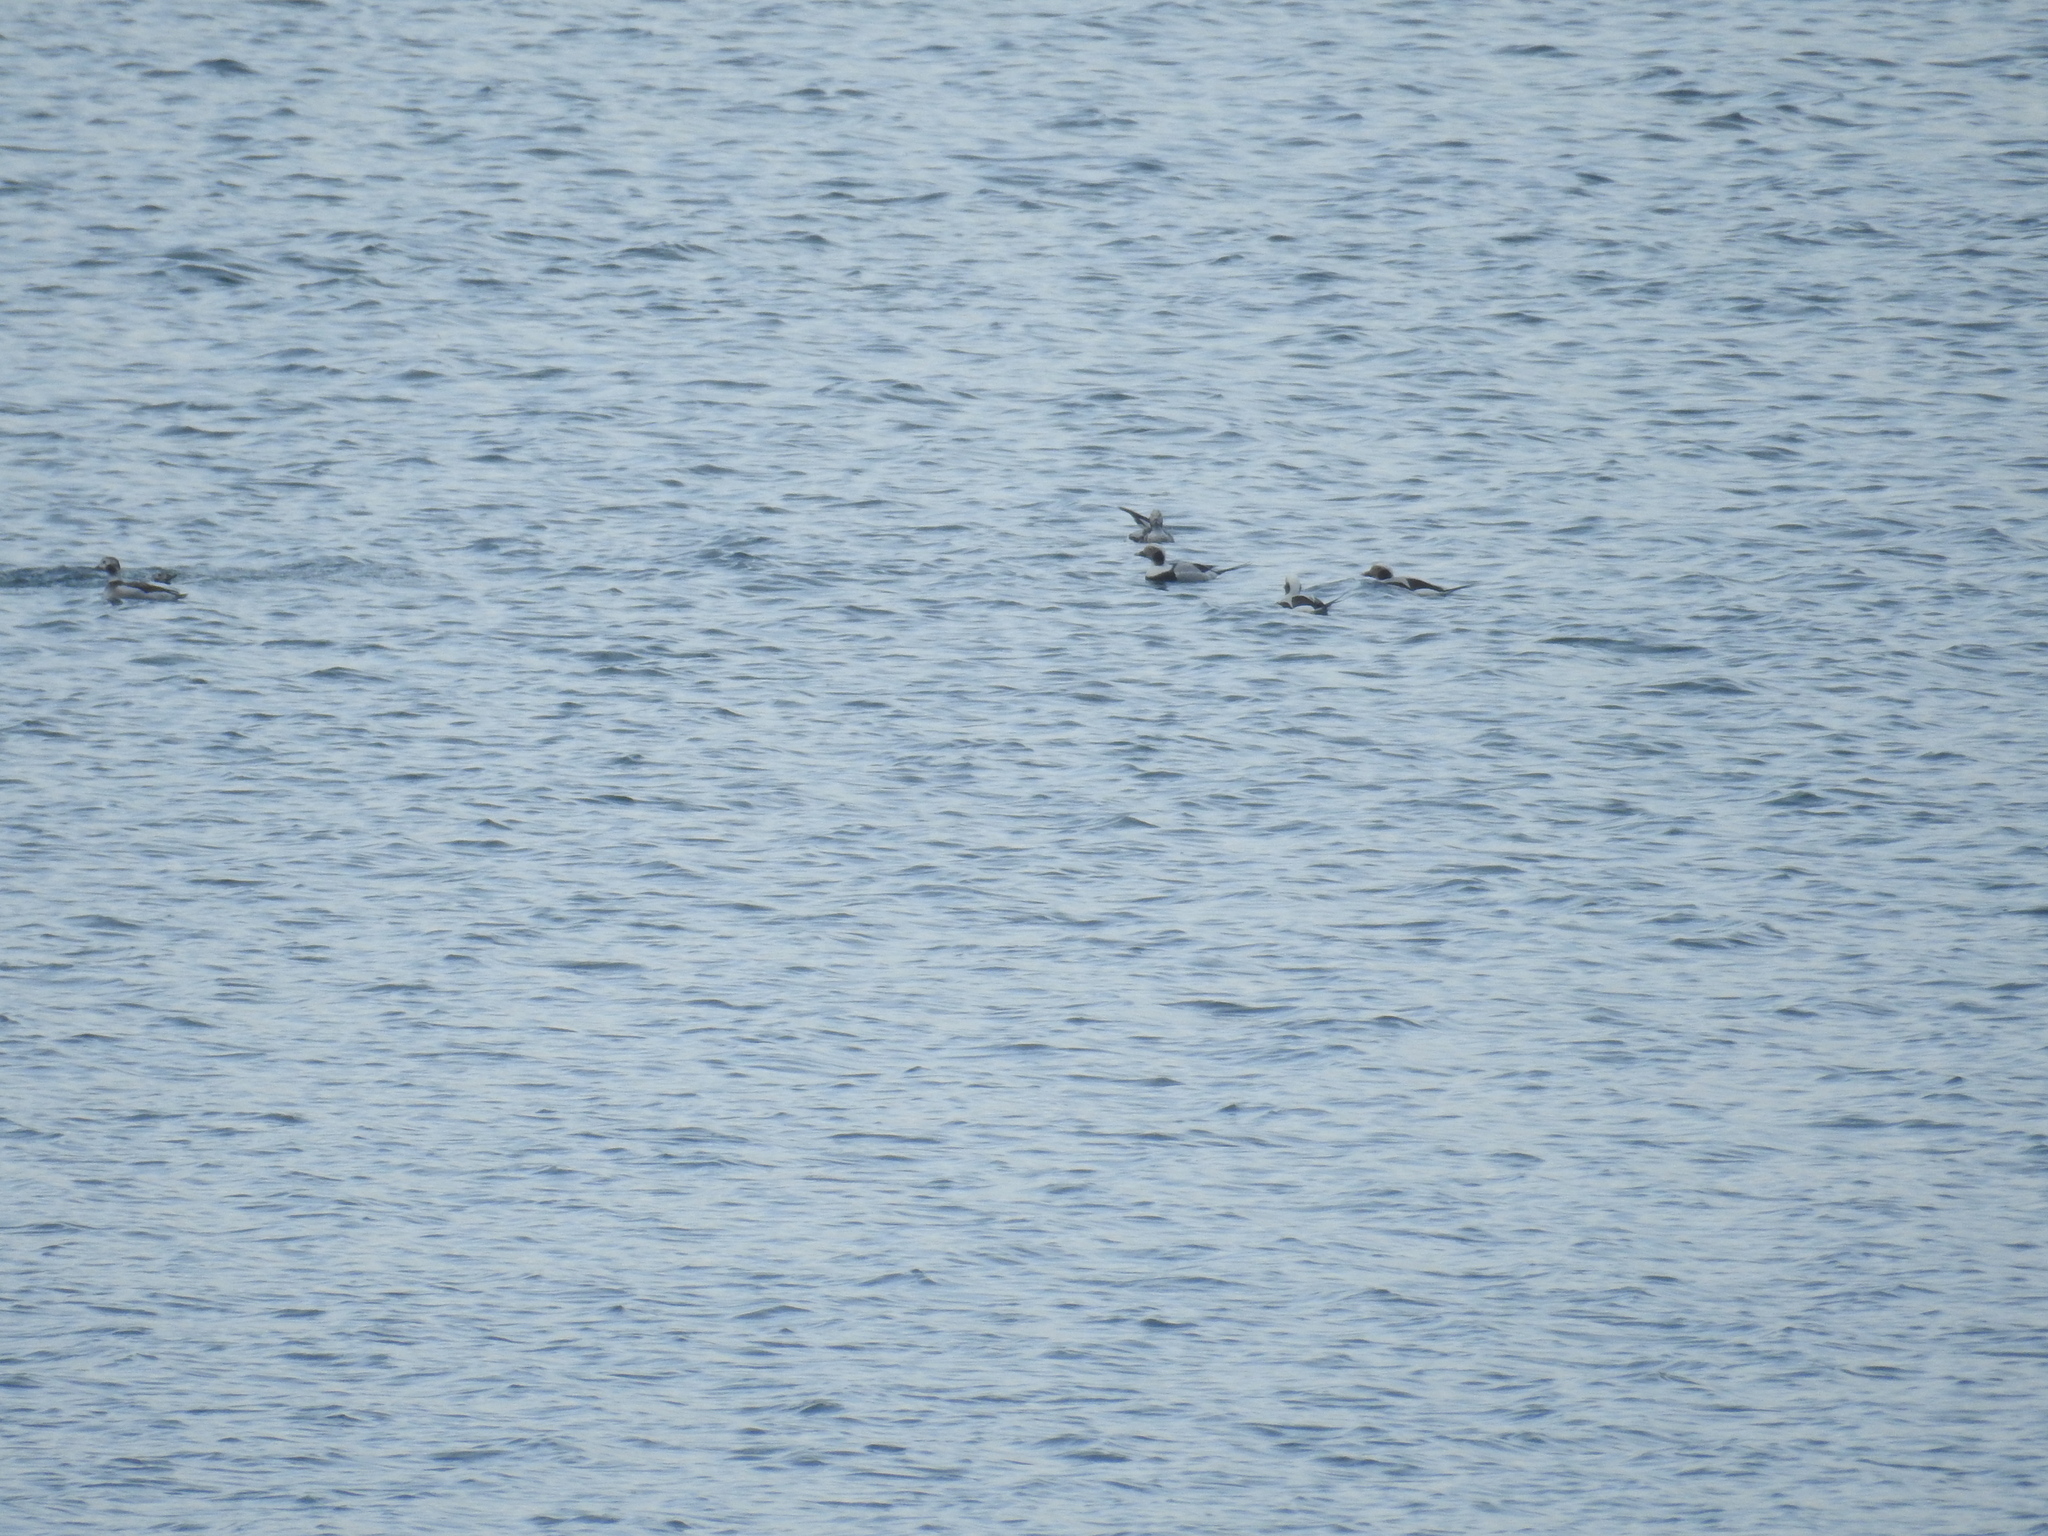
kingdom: Animalia
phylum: Chordata
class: Aves
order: Anseriformes
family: Anatidae
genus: Clangula
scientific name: Clangula hyemalis
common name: Long-tailed duck
